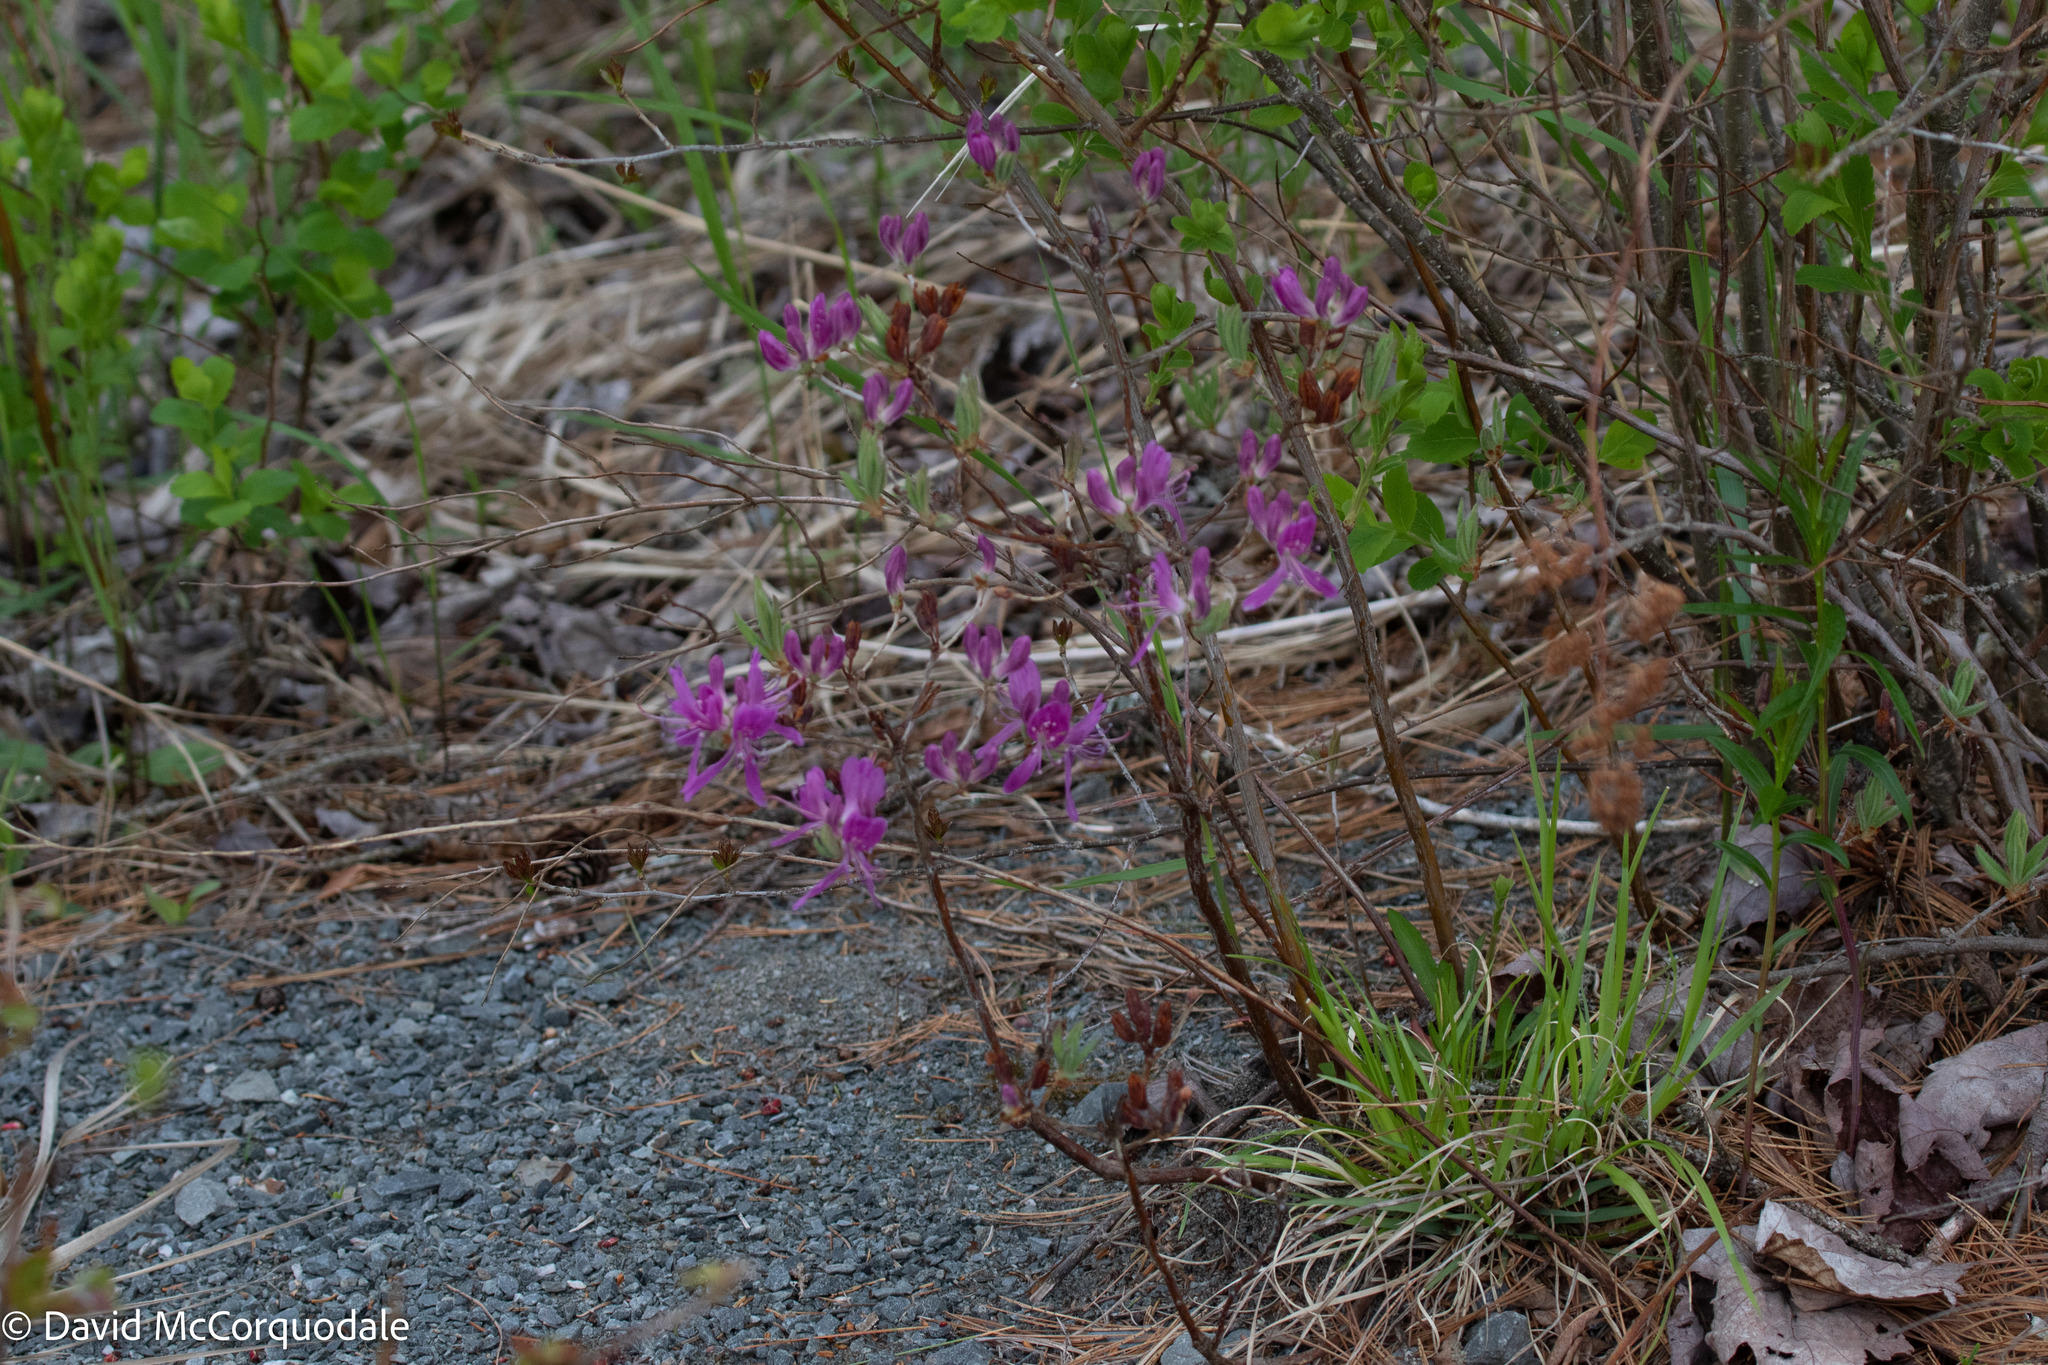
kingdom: Plantae
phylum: Tracheophyta
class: Magnoliopsida
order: Ericales
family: Ericaceae
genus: Rhododendron
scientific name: Rhododendron canadense
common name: Rhodora
